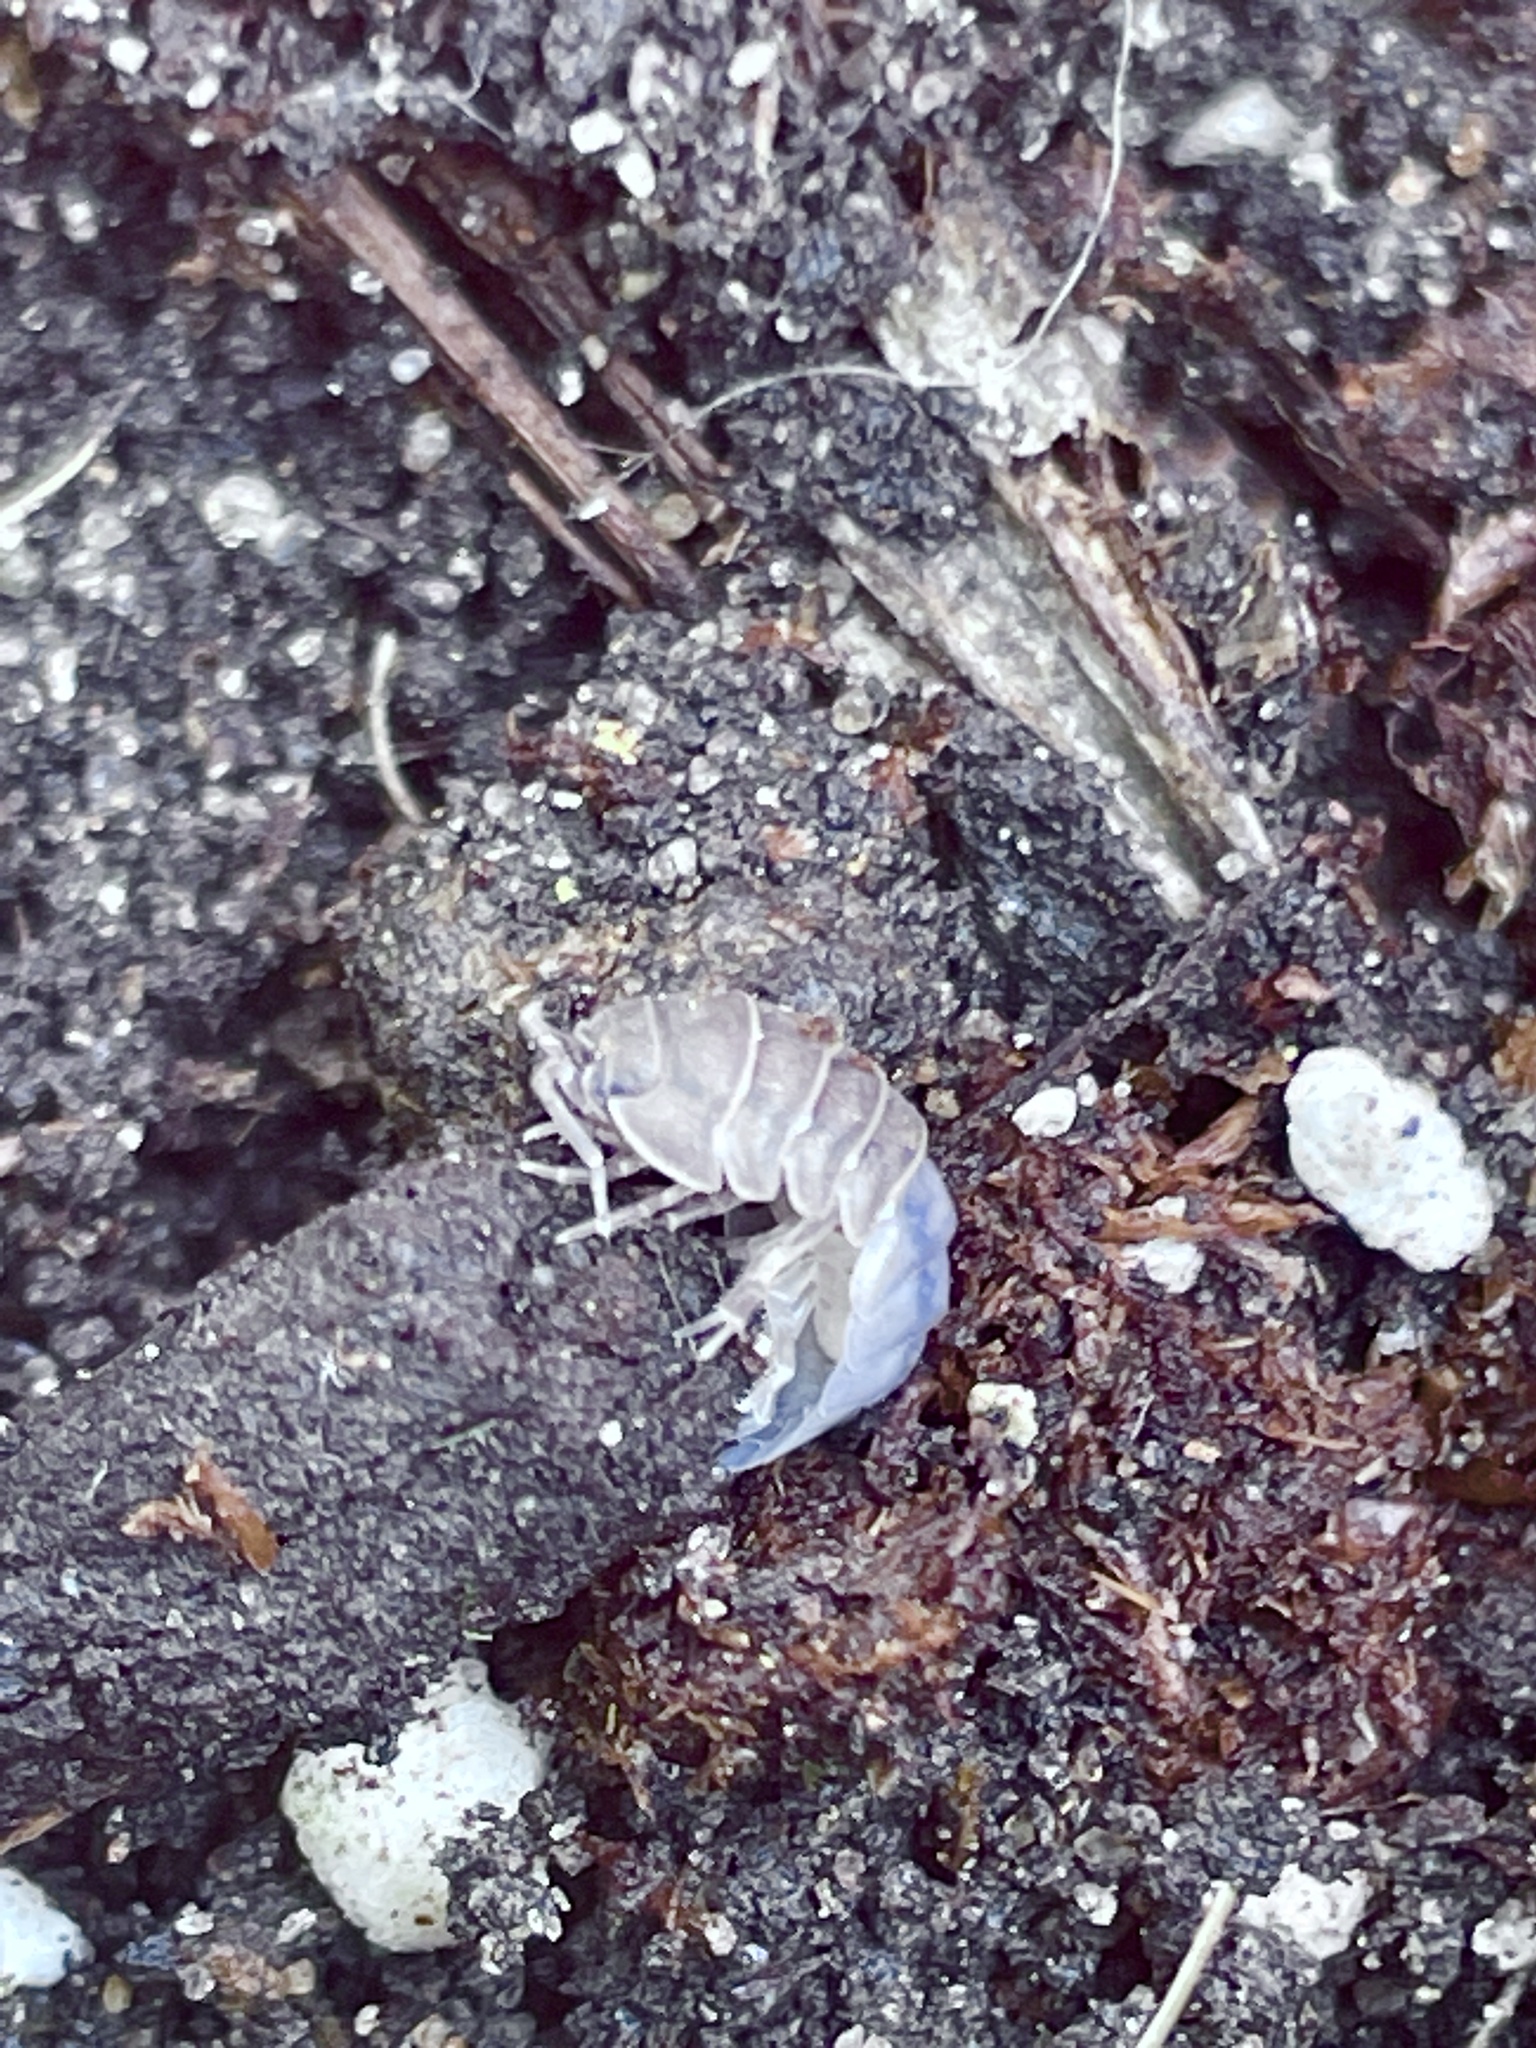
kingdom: Viruses
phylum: Nucleocytoviricota
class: Megaviricetes
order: Pimascovirales
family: Iridoviridae
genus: Iridovirus
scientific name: Iridovirus Invertebrate iridescent virus 31
